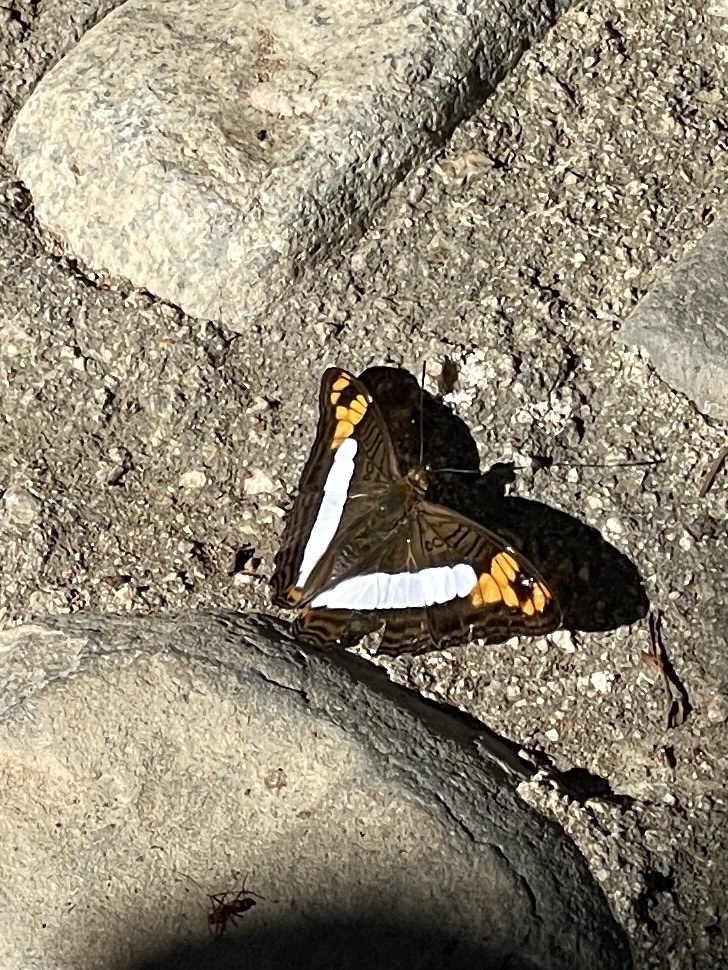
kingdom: Animalia
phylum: Arthropoda
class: Insecta
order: Lepidoptera
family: Nymphalidae
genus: Limenitis
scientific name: Limenitis phylaca
